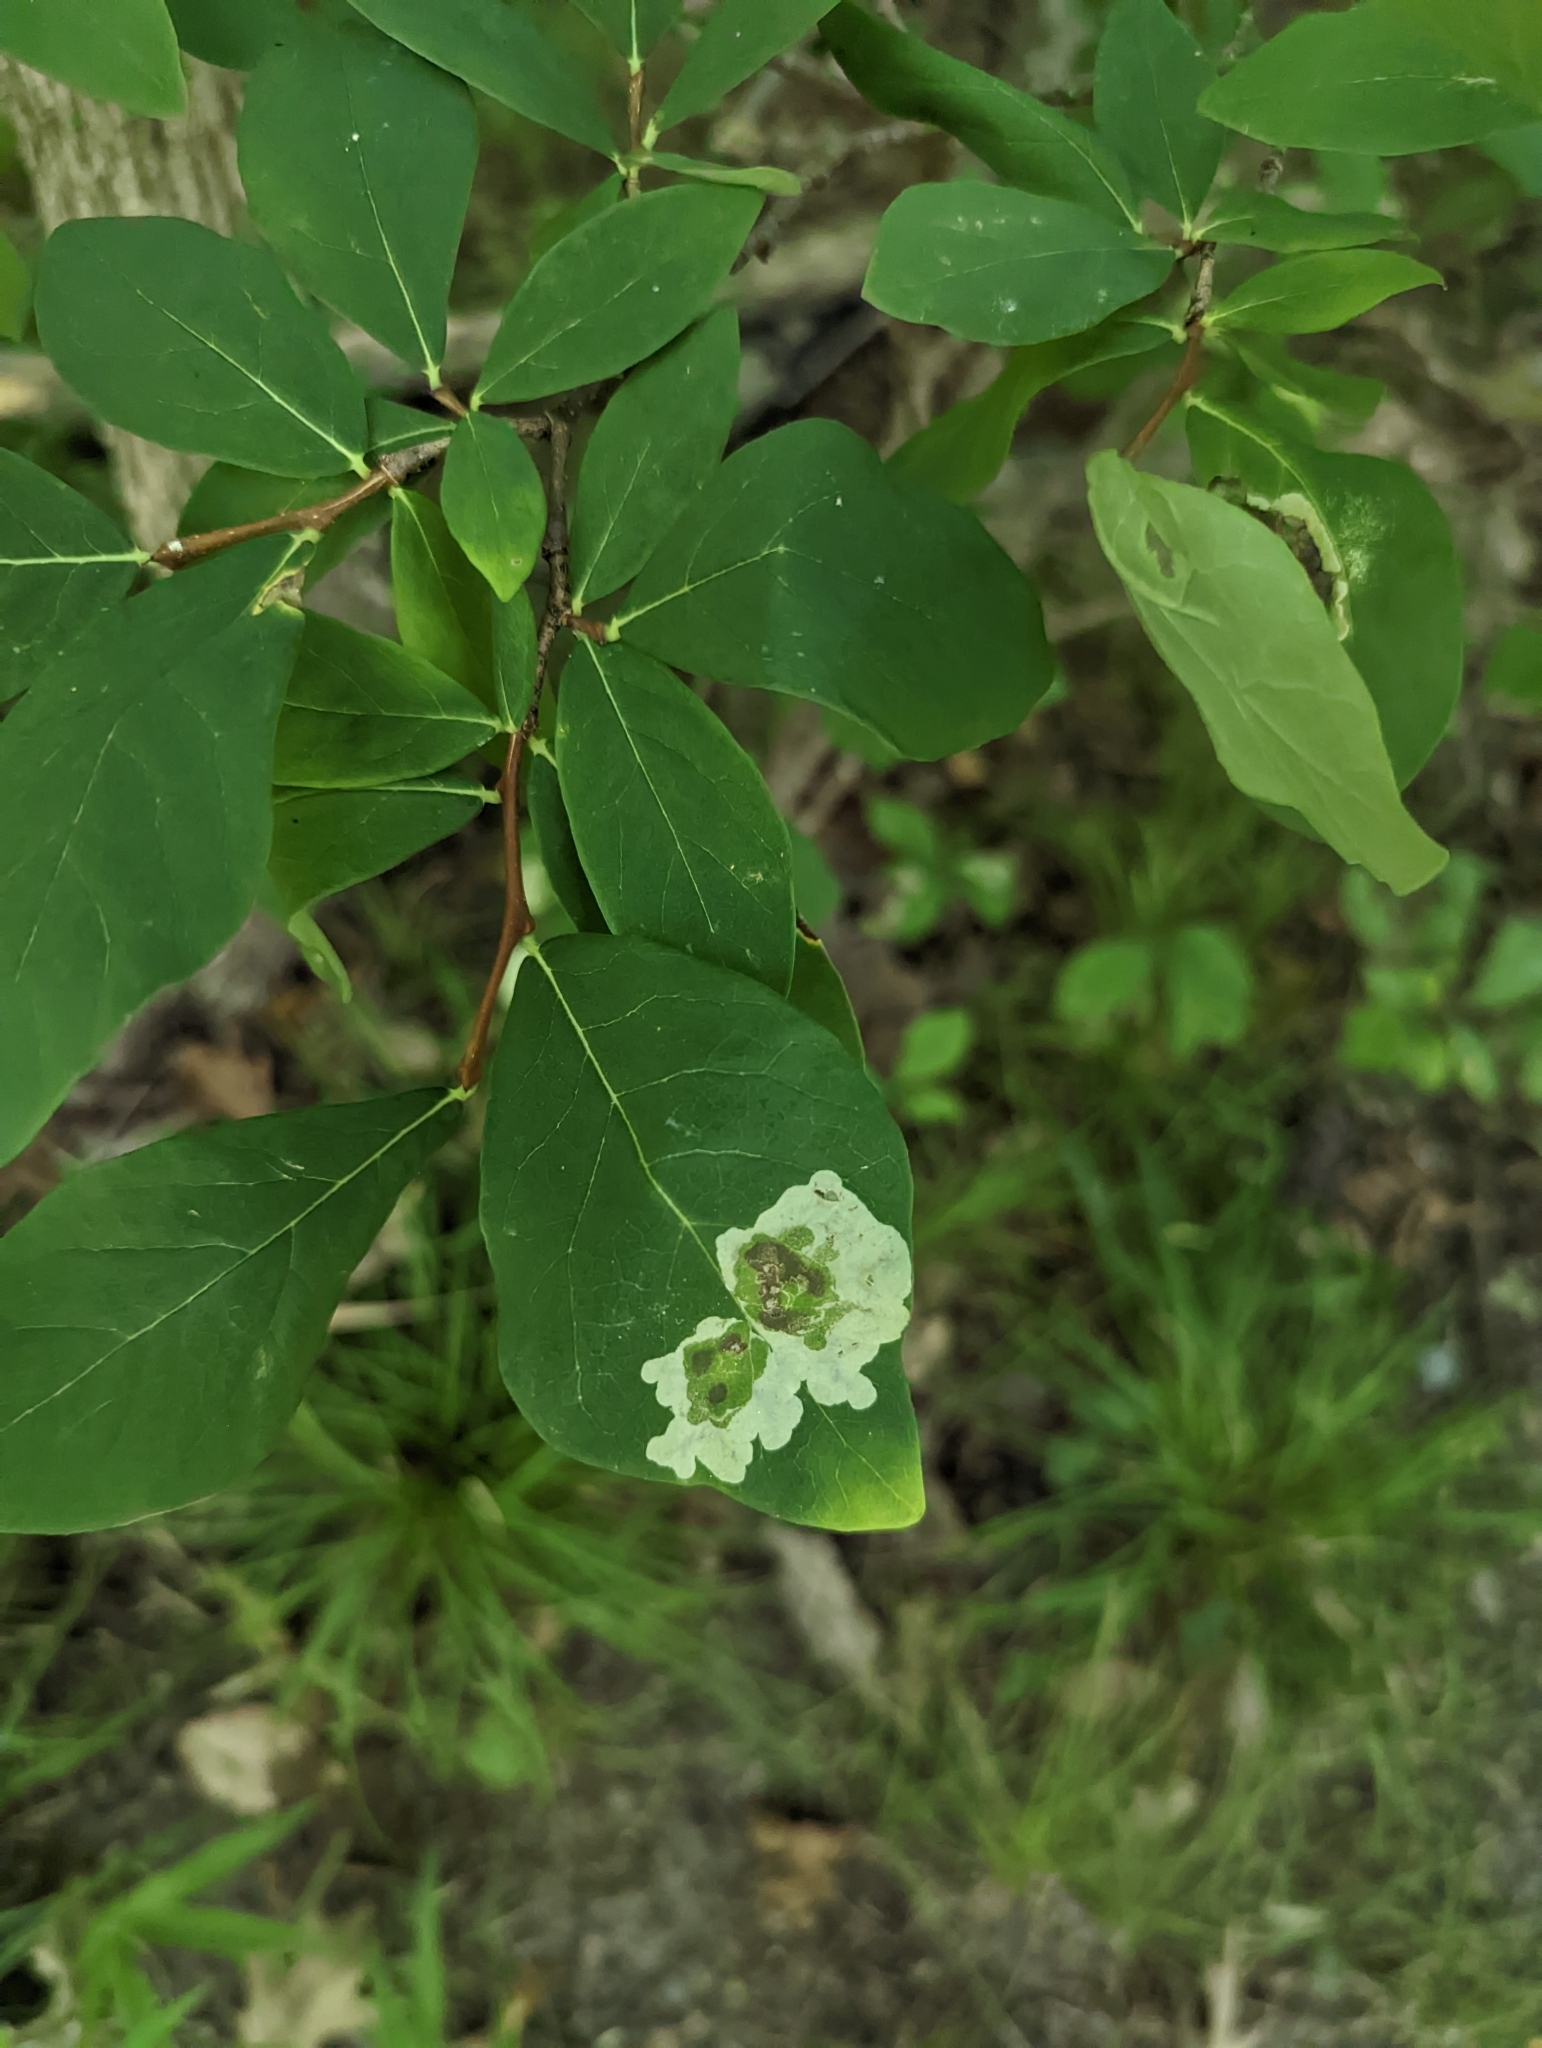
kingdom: Animalia
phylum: Arthropoda
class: Insecta
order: Lepidoptera
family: Gracillariidae
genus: Leucanthiza
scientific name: Leucanthiza dircella
